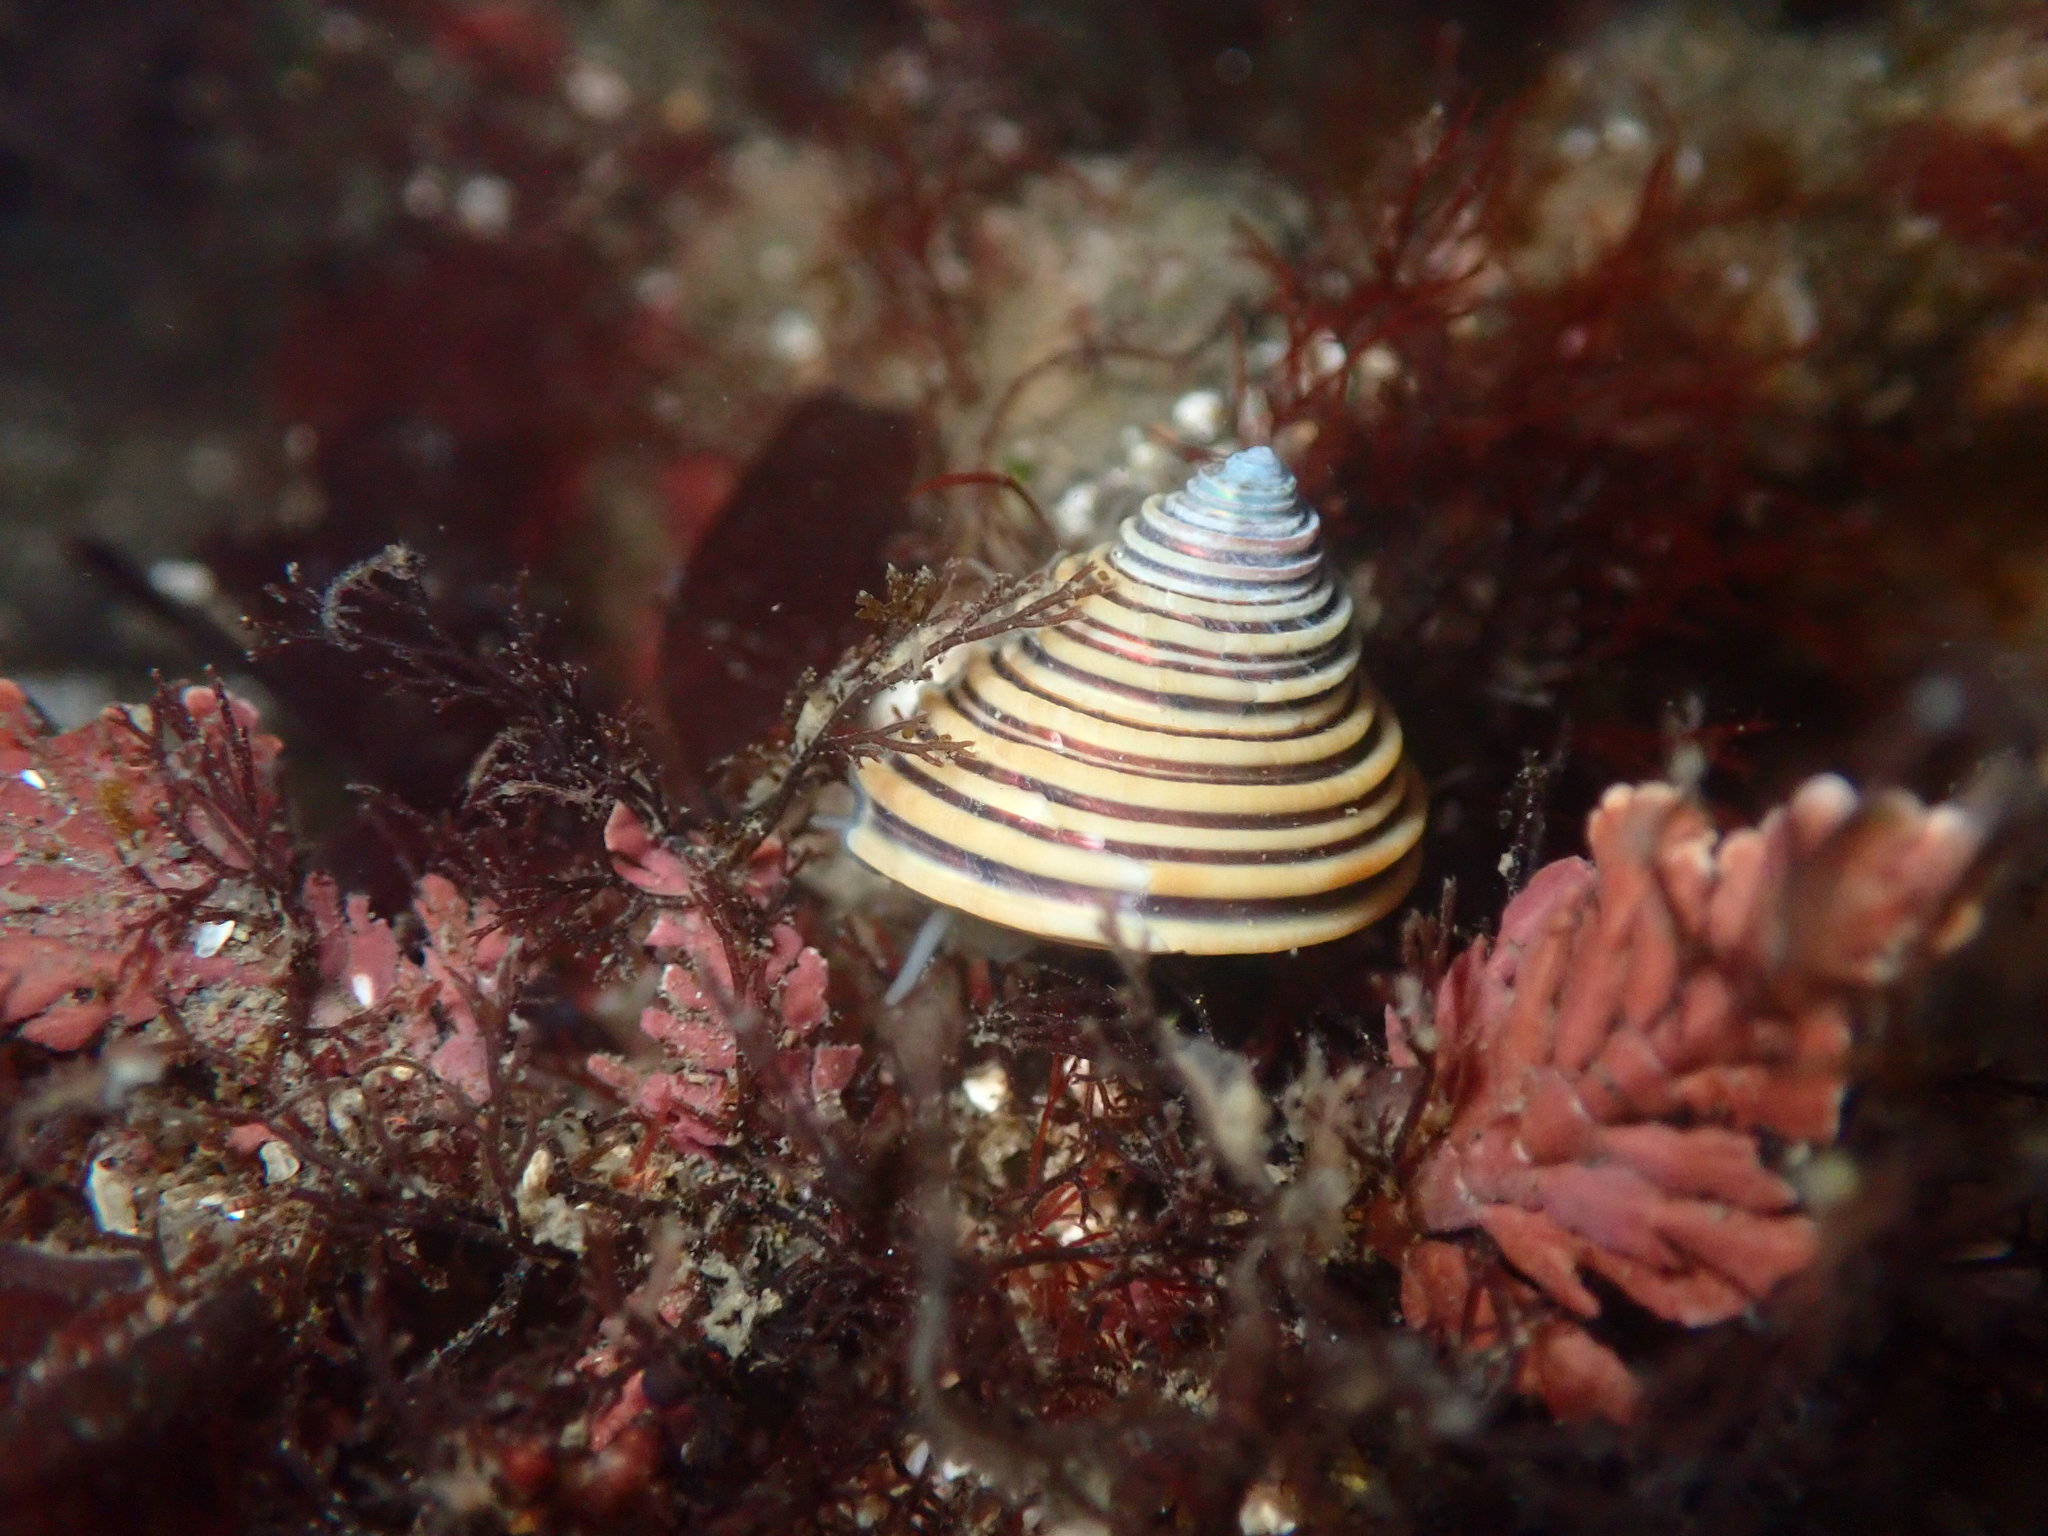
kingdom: Animalia
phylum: Mollusca
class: Gastropoda
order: Trochida
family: Calliostomatidae
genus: Calliostoma
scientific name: Calliostoma canaliculatum
